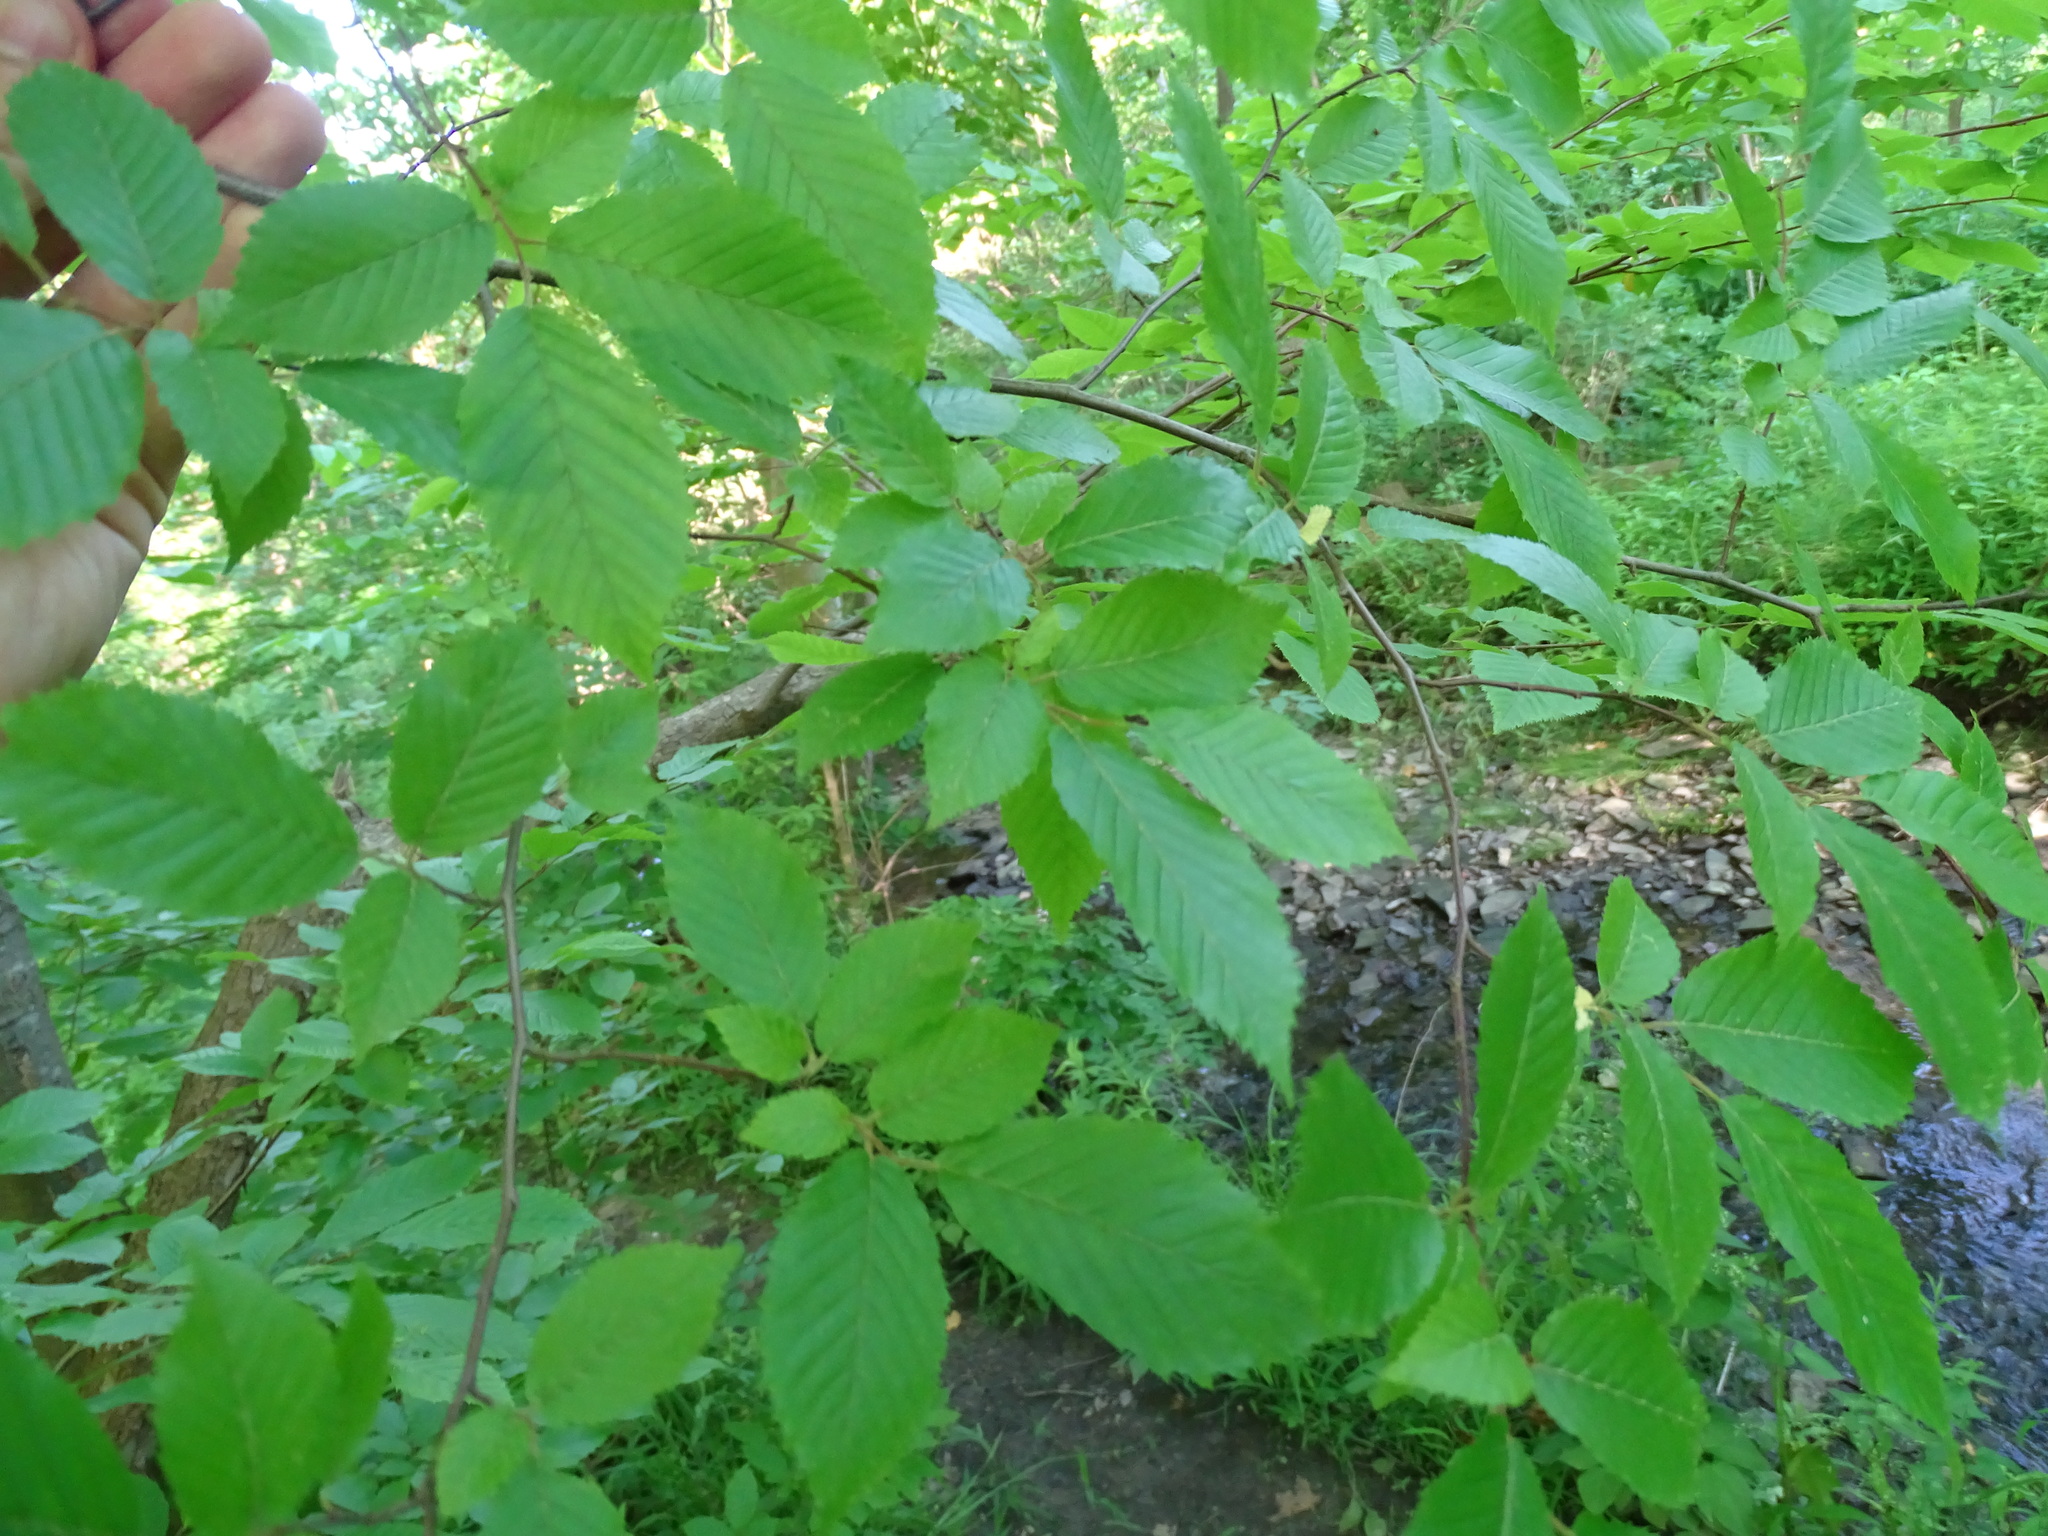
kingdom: Plantae
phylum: Tracheophyta
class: Magnoliopsida
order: Fagales
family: Betulaceae
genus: Carpinus
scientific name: Carpinus caroliniana
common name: American hornbeam
